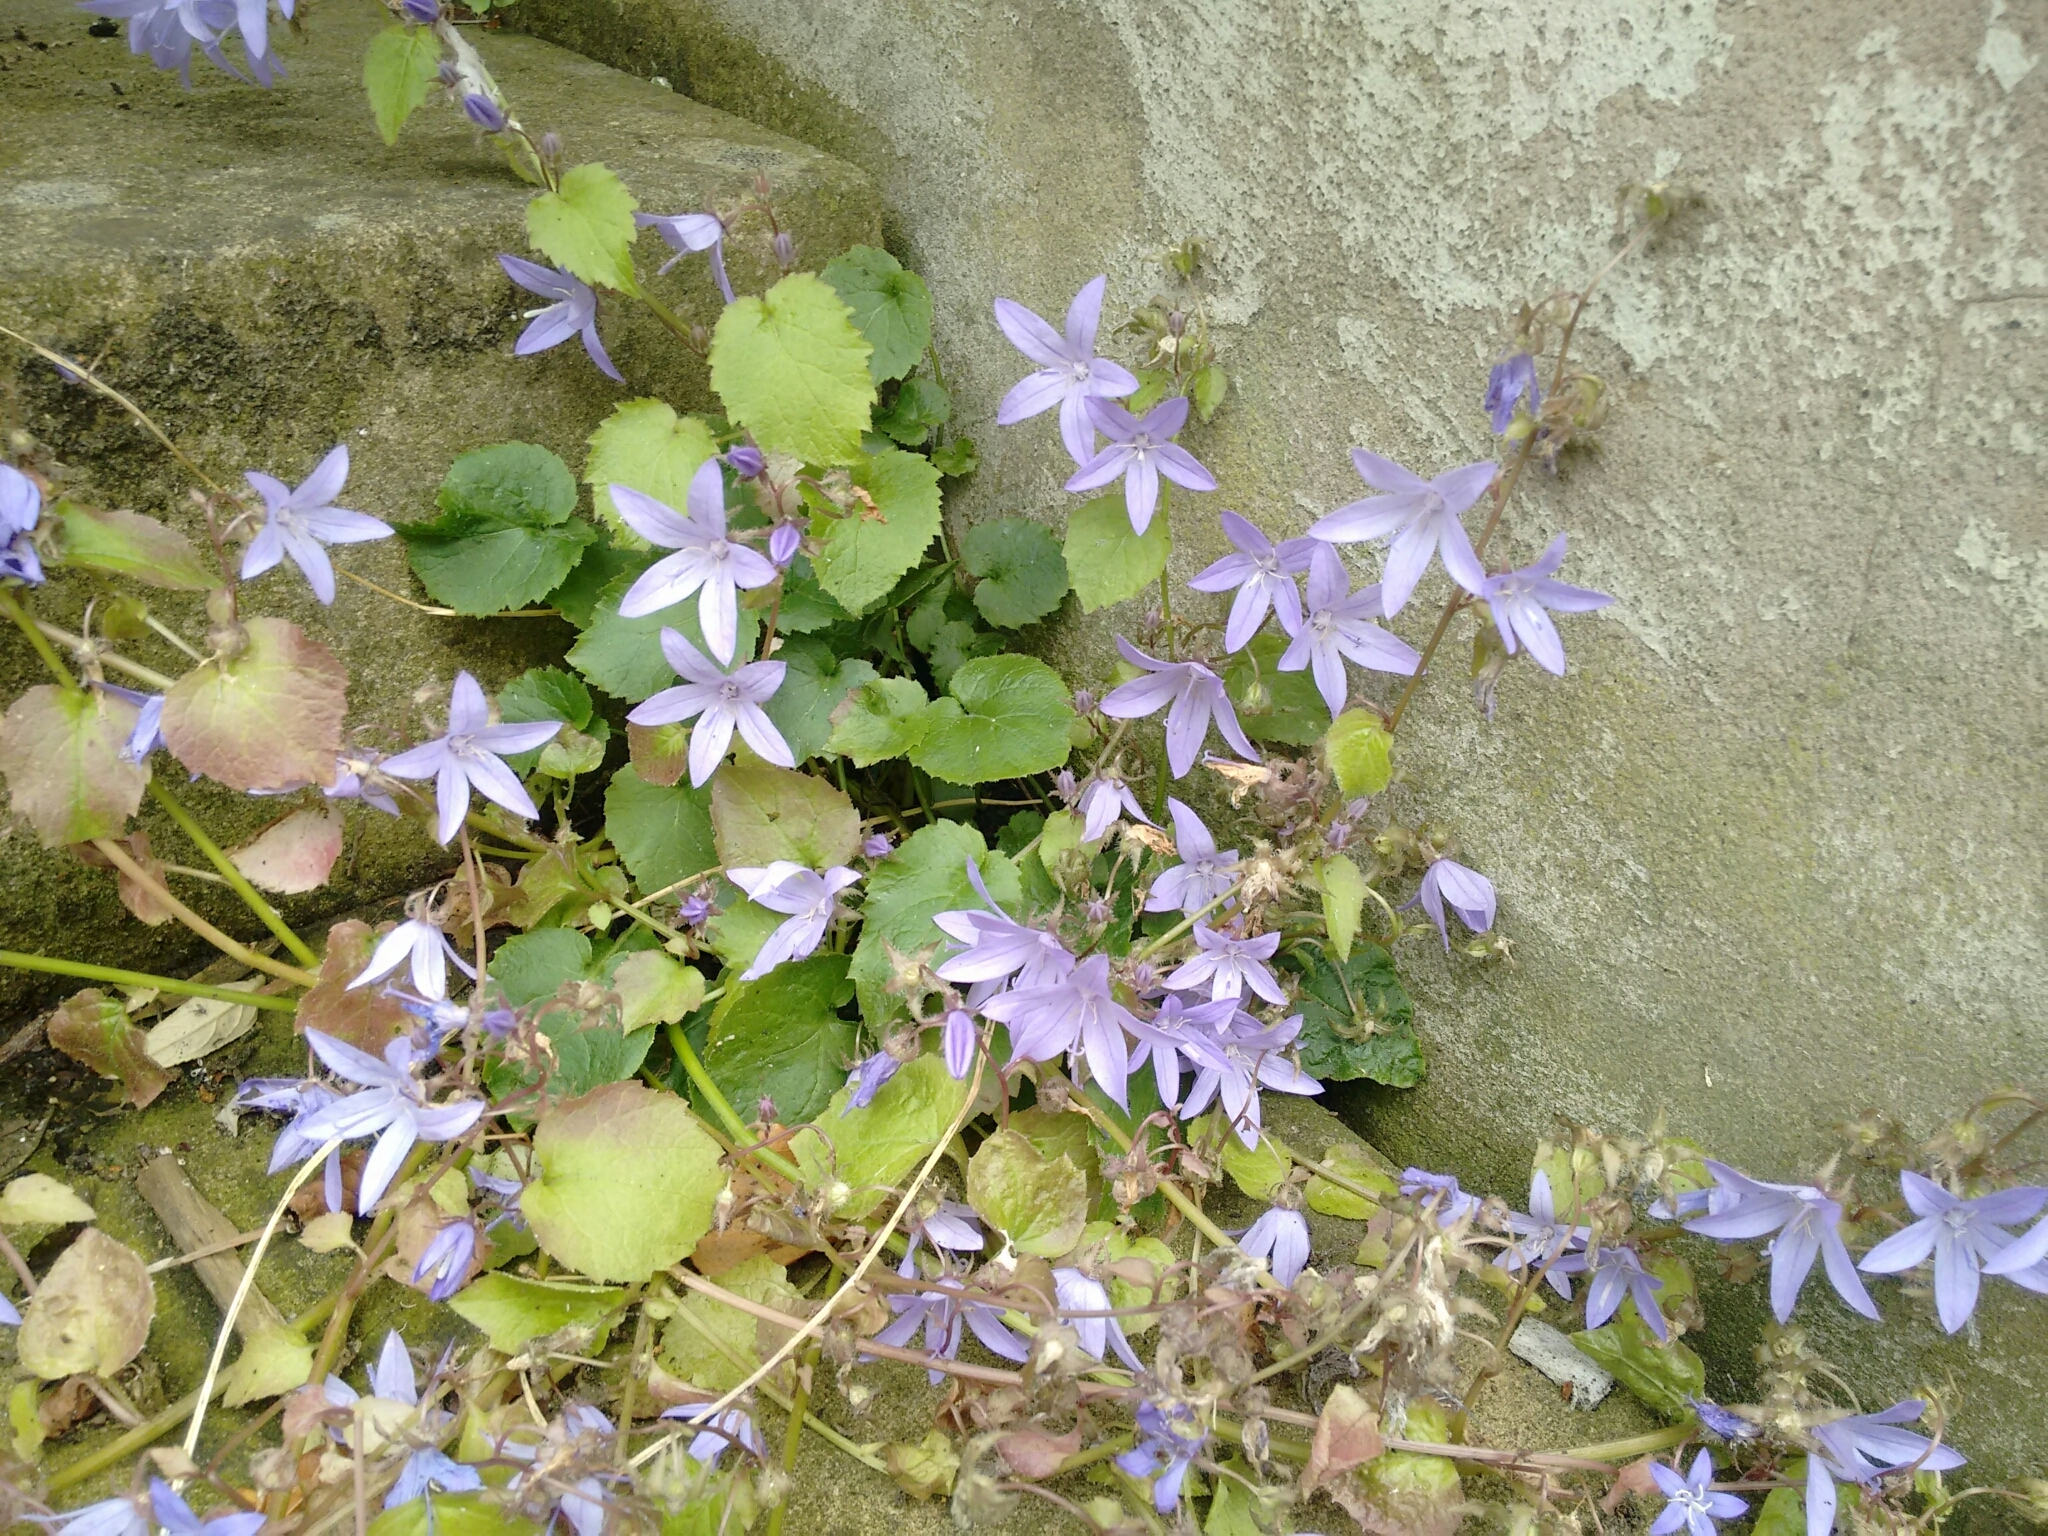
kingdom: Plantae
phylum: Tracheophyta
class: Magnoliopsida
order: Asterales
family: Campanulaceae
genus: Campanula
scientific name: Campanula poscharskyana
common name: Trailing bellflower
